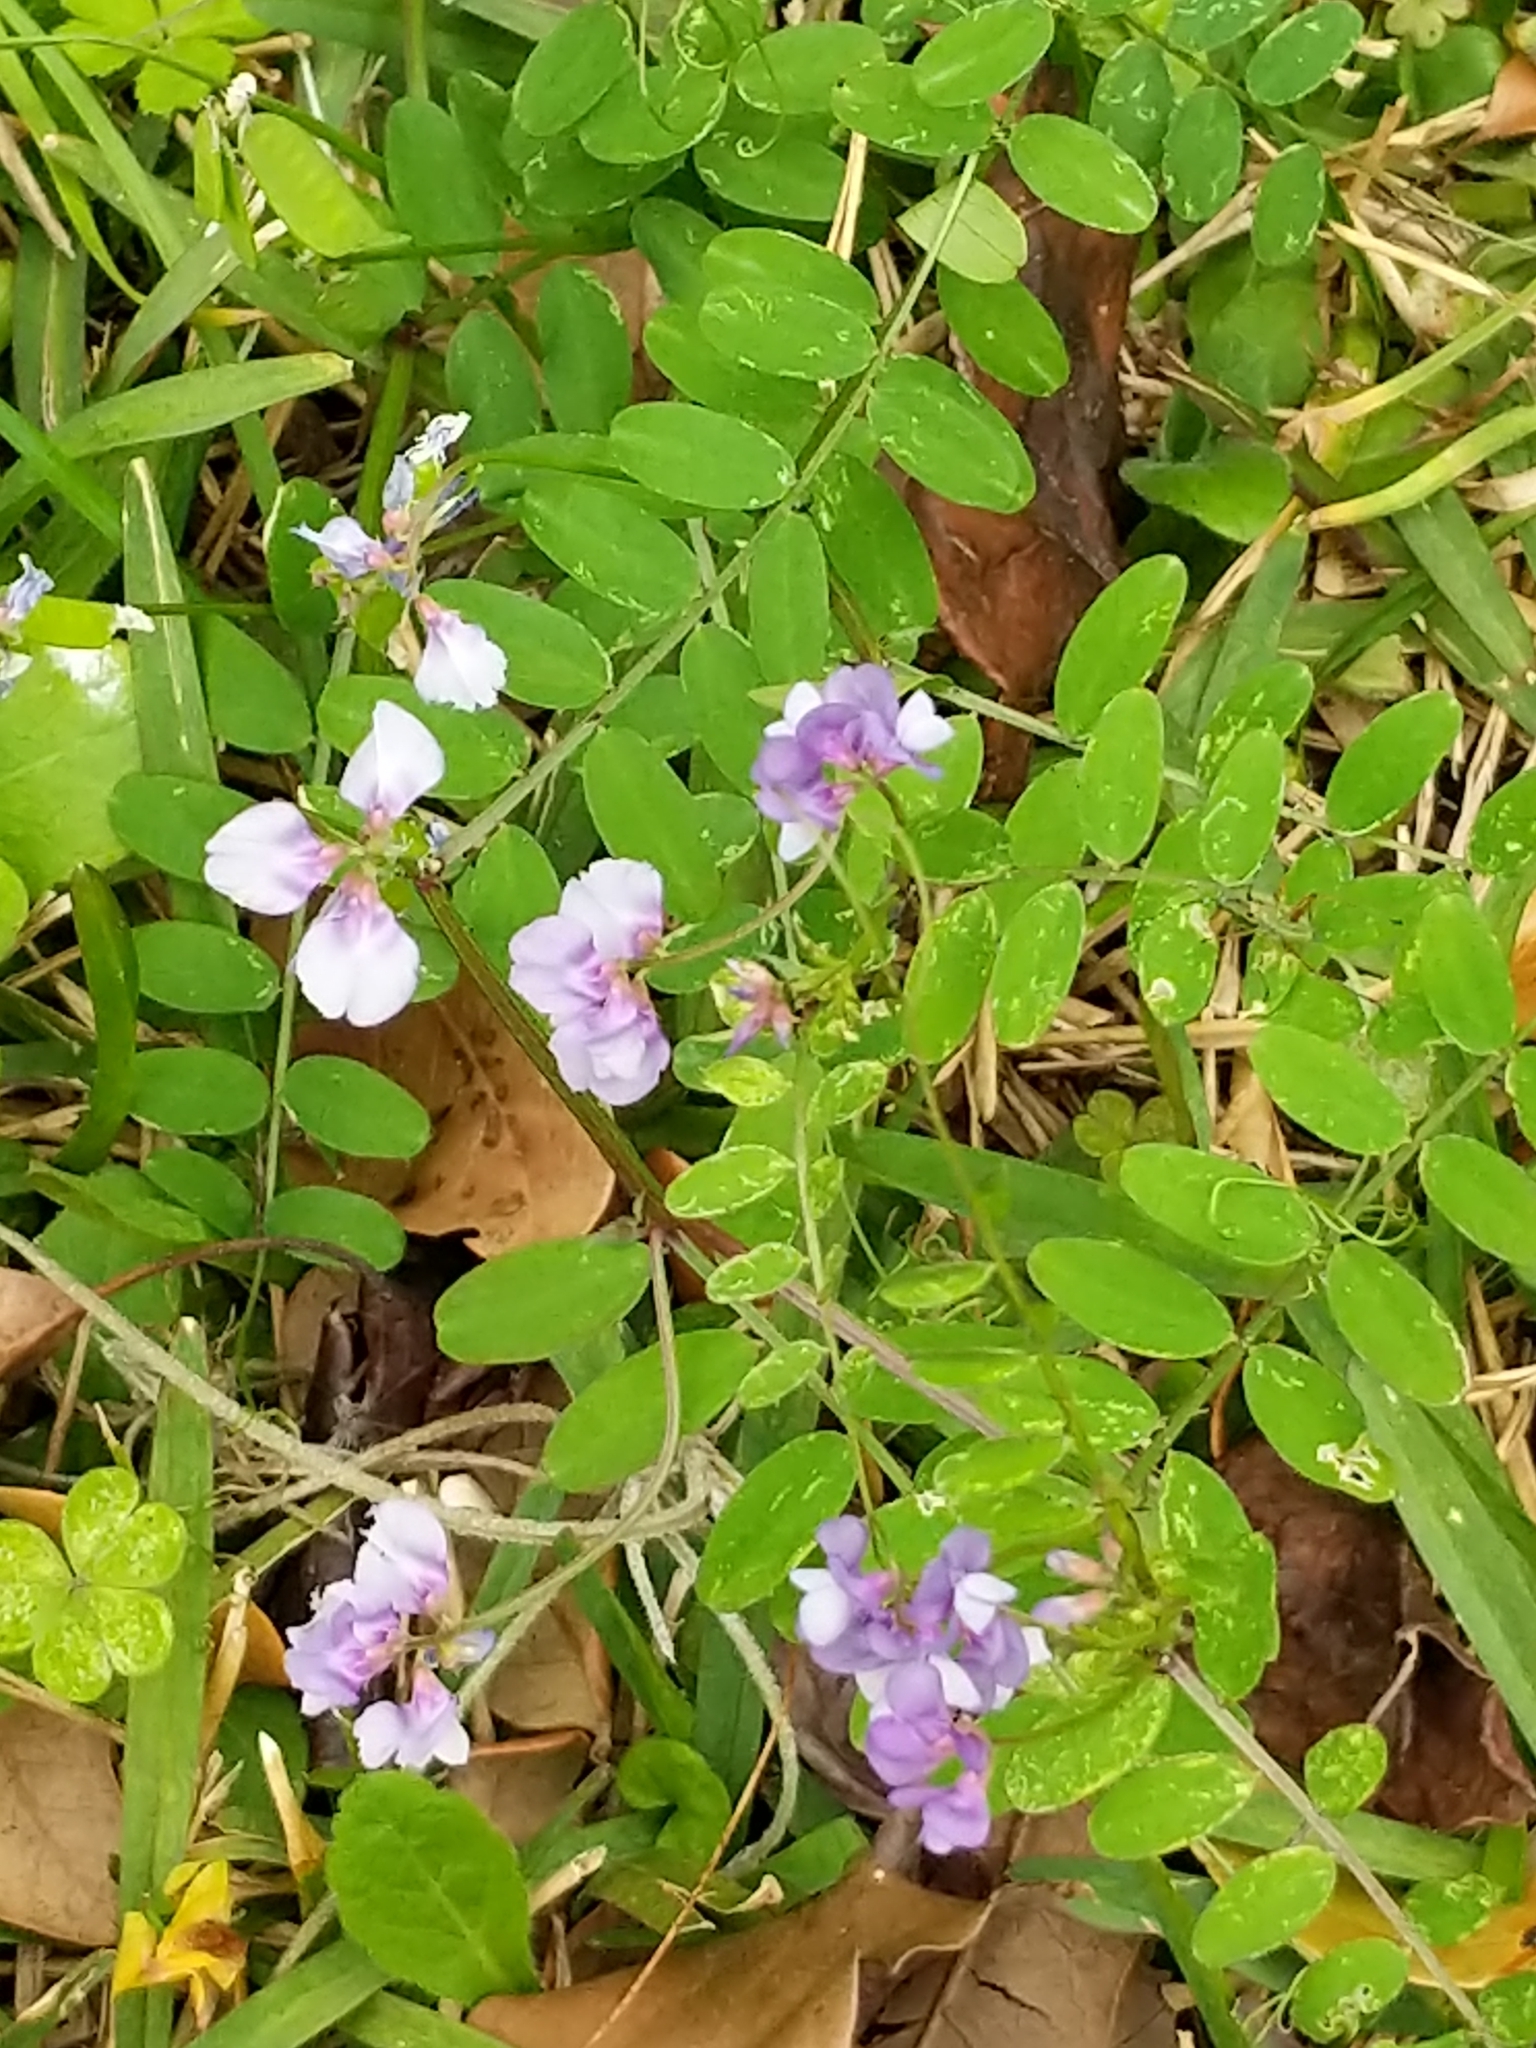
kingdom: Plantae
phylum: Tracheophyta
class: Magnoliopsida
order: Fabales
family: Fabaceae
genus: Vicia
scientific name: Vicia ludoviciana
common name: Louisiana vetch
